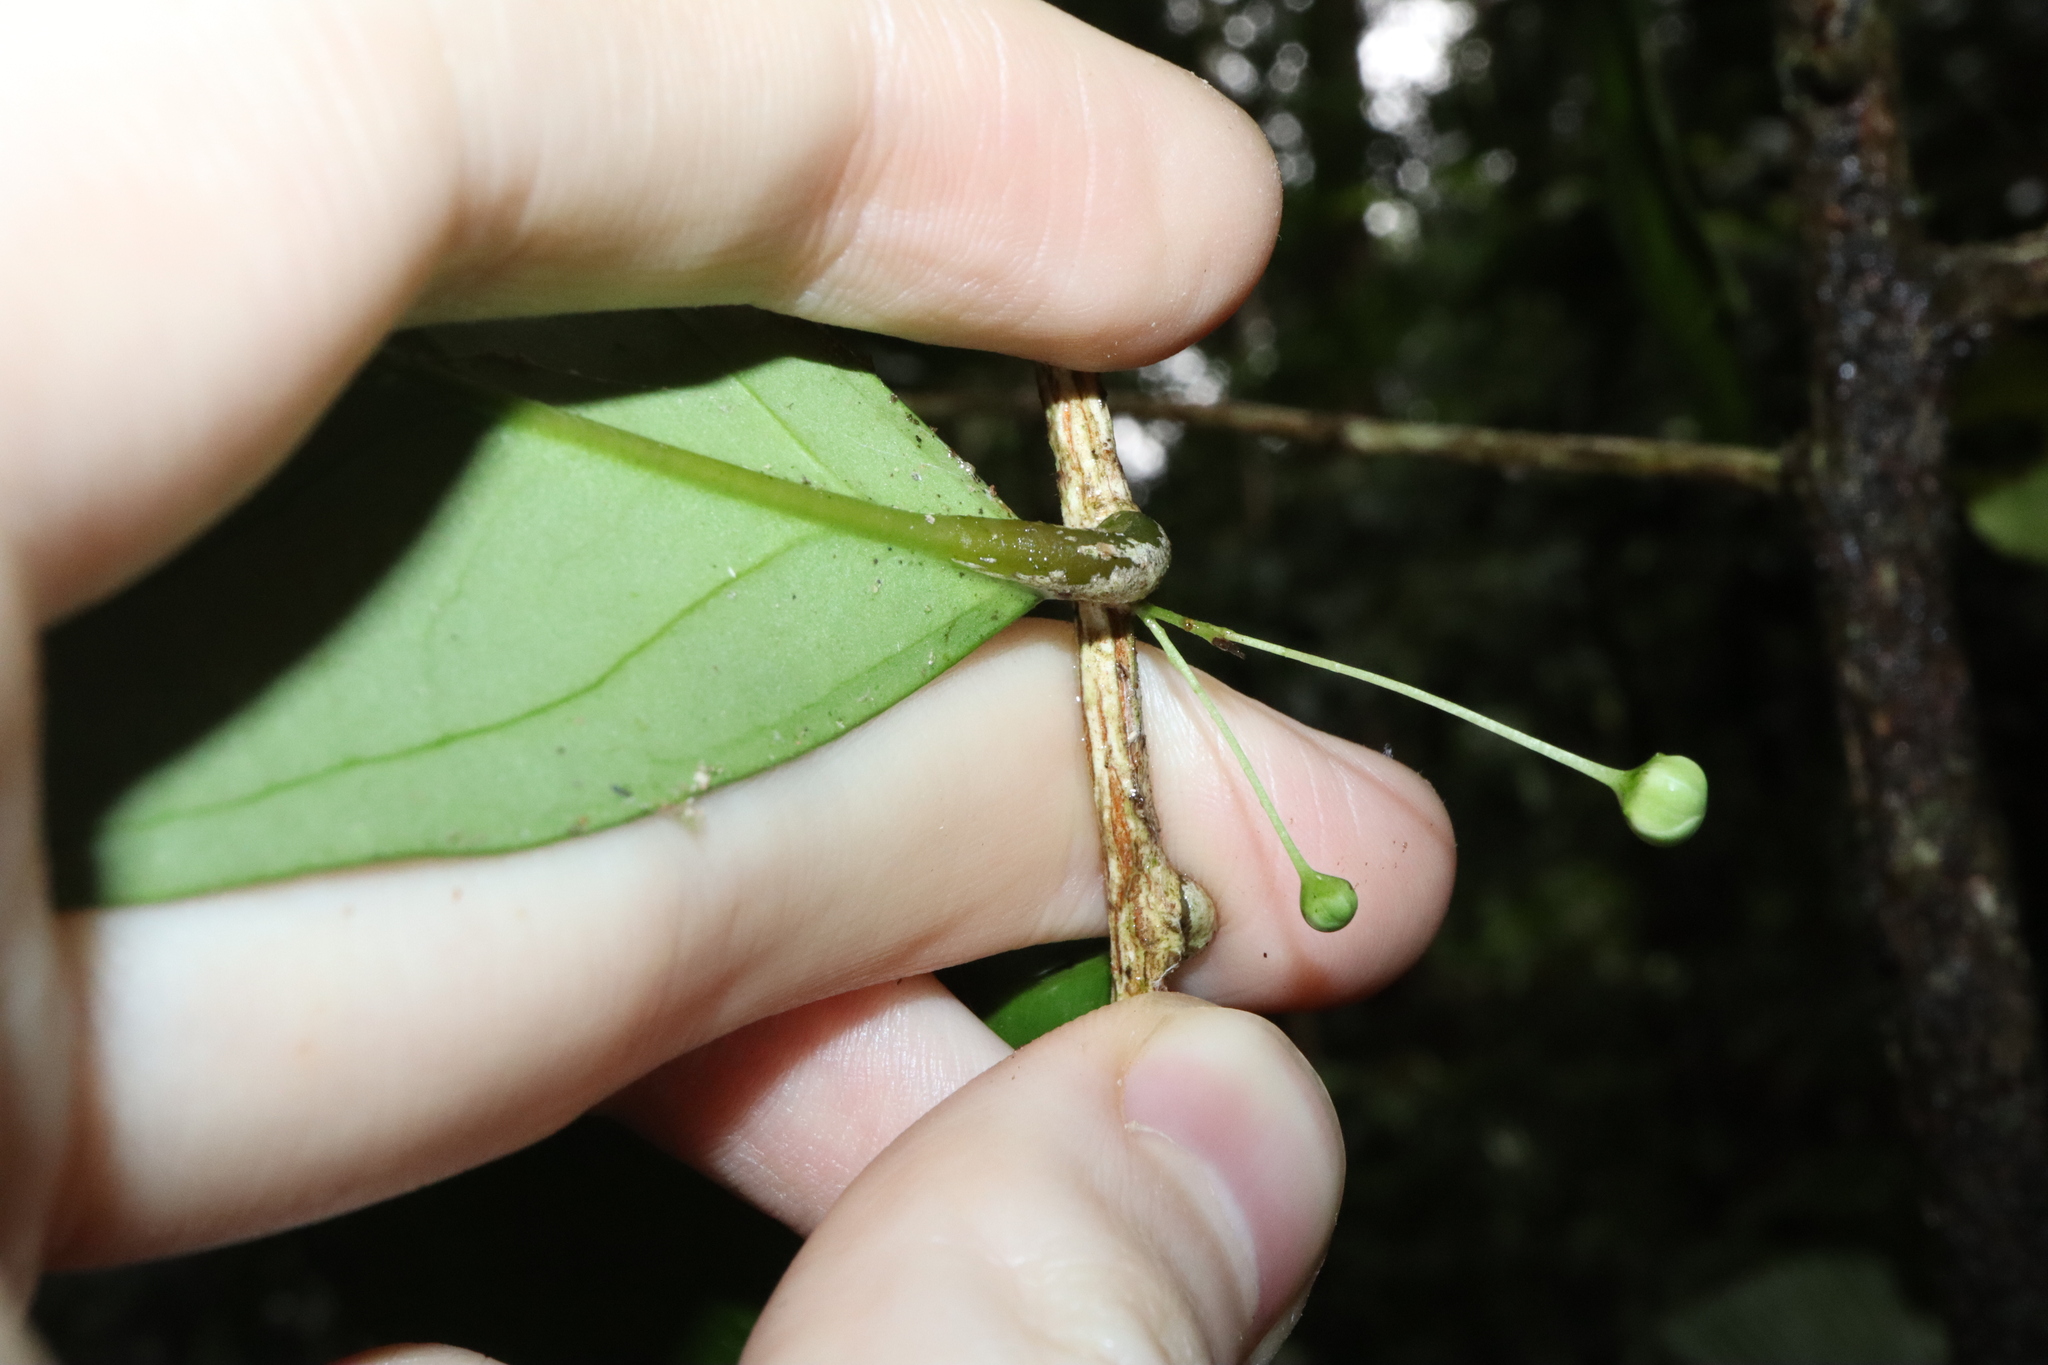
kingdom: Plantae
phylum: Tracheophyta
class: Magnoliopsida
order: Celastrales
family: Celastraceae
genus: Hedraianthera
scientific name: Hedraianthera porphyropetala
